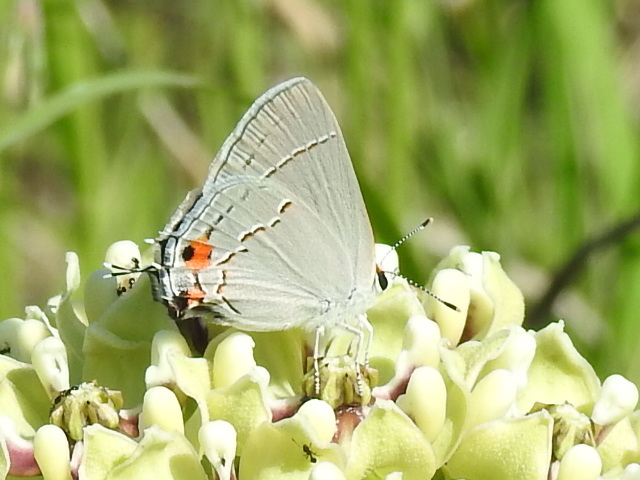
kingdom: Animalia
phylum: Arthropoda
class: Insecta
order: Lepidoptera
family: Lycaenidae
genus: Strymon
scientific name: Strymon melinus
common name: Gray hairstreak
